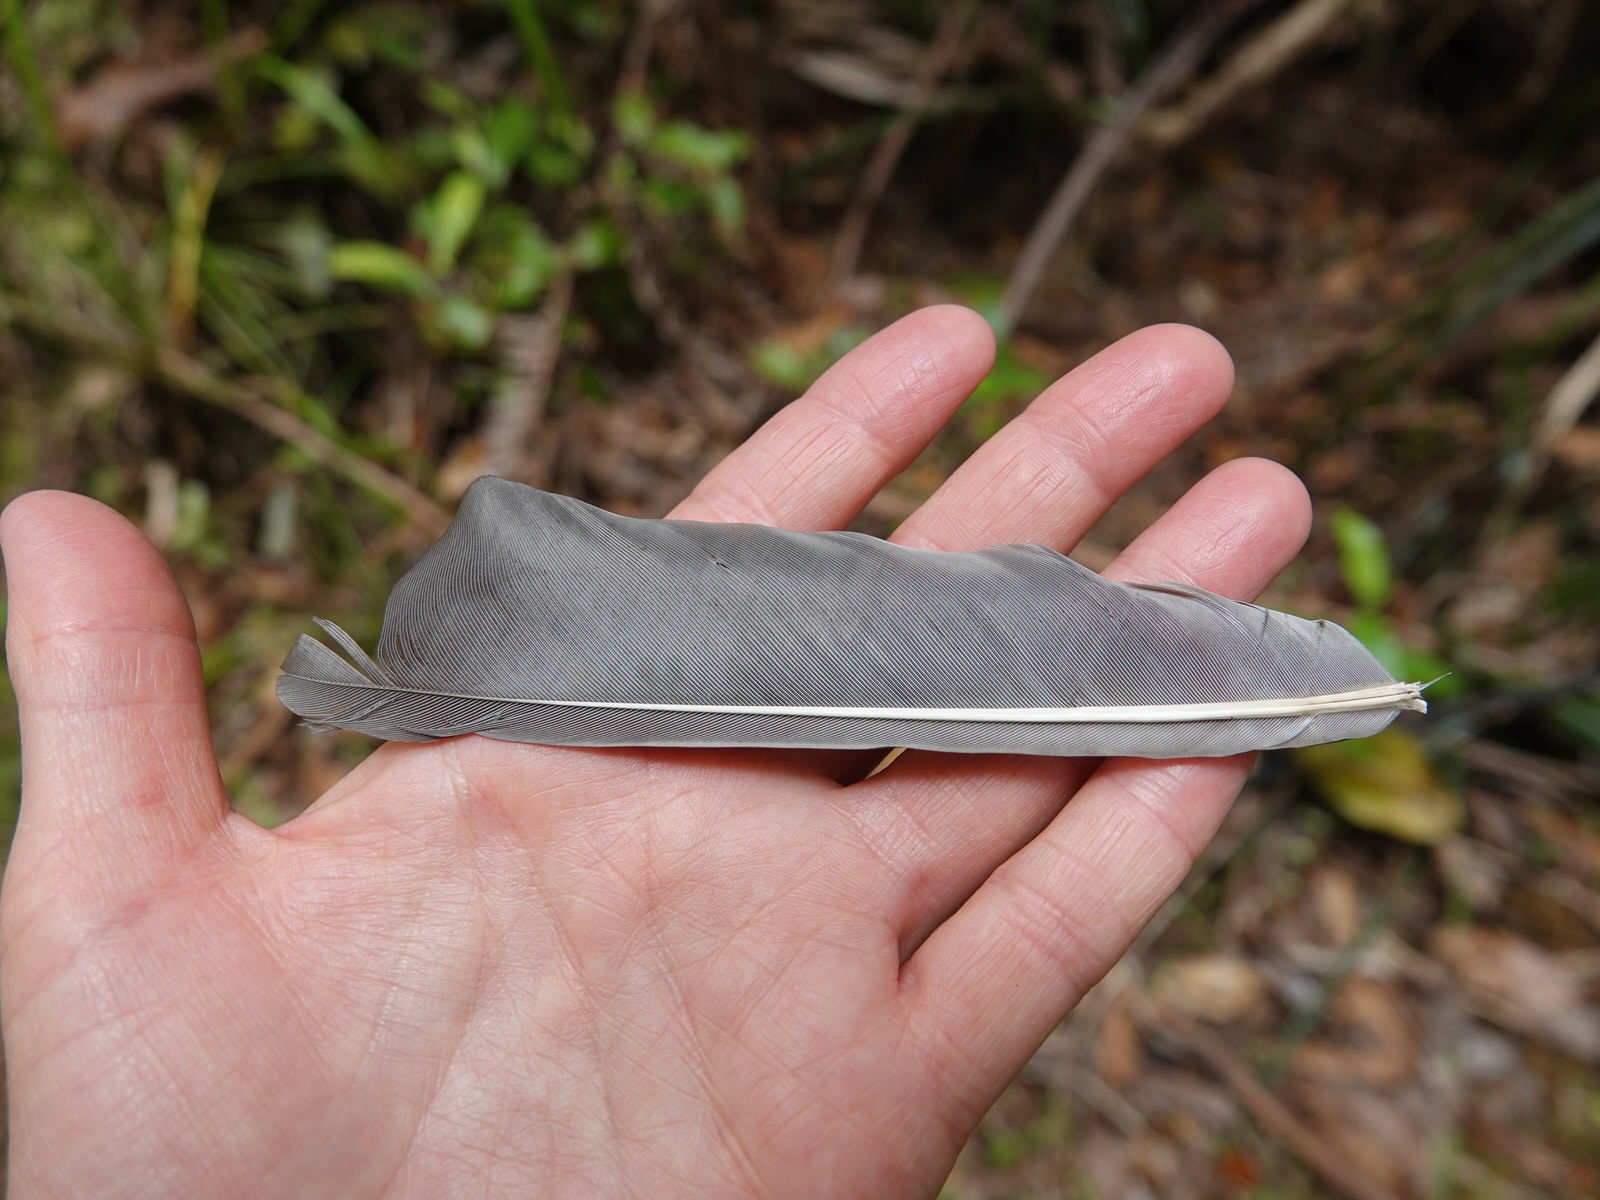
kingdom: Animalia
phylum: Chordata
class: Aves
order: Columbiformes
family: Columbidae
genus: Hemiphaga
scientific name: Hemiphaga novaeseelandiae
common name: New zealand pigeon
